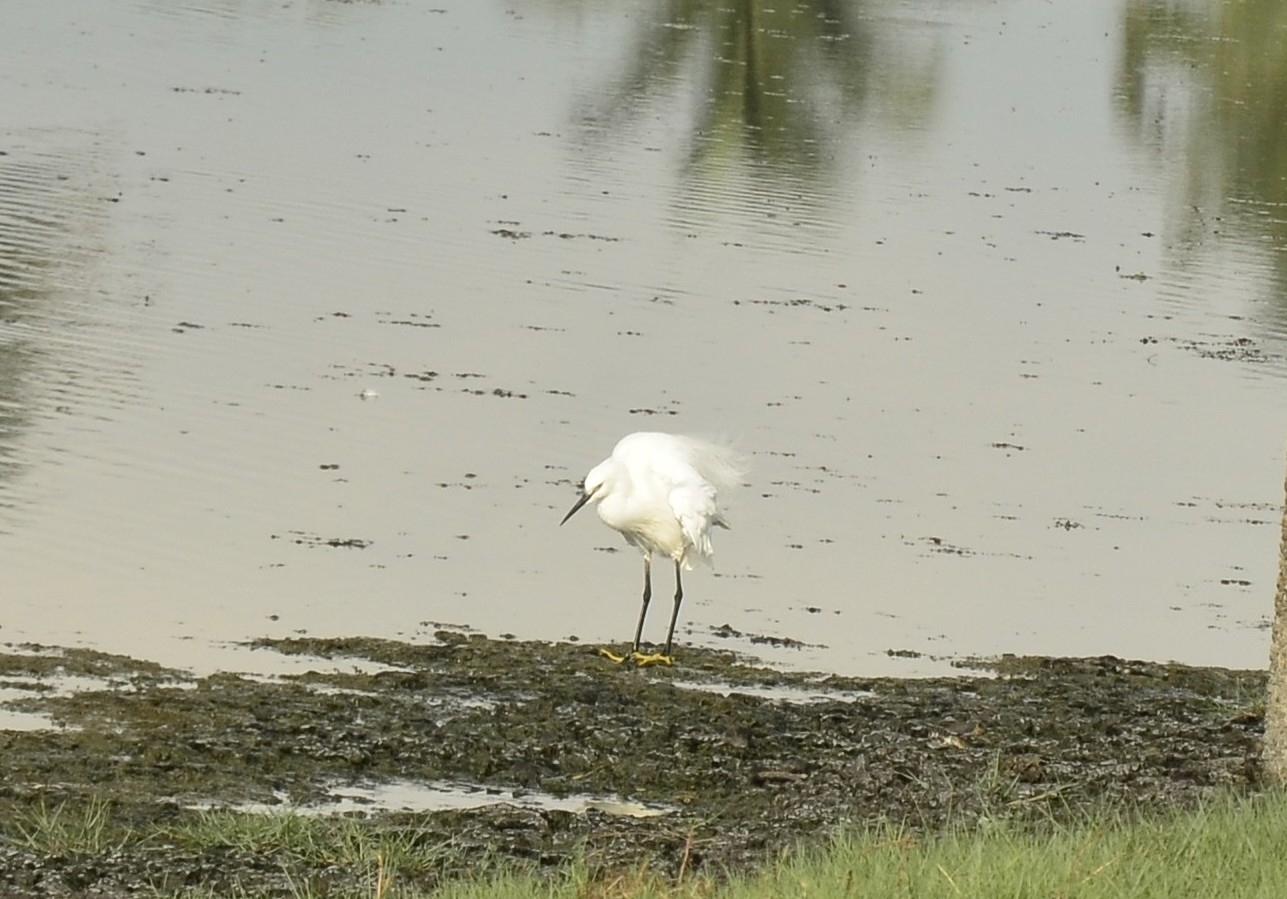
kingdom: Animalia
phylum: Chordata
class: Aves
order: Pelecaniformes
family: Ardeidae
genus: Egretta
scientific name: Egretta garzetta
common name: Little egret
